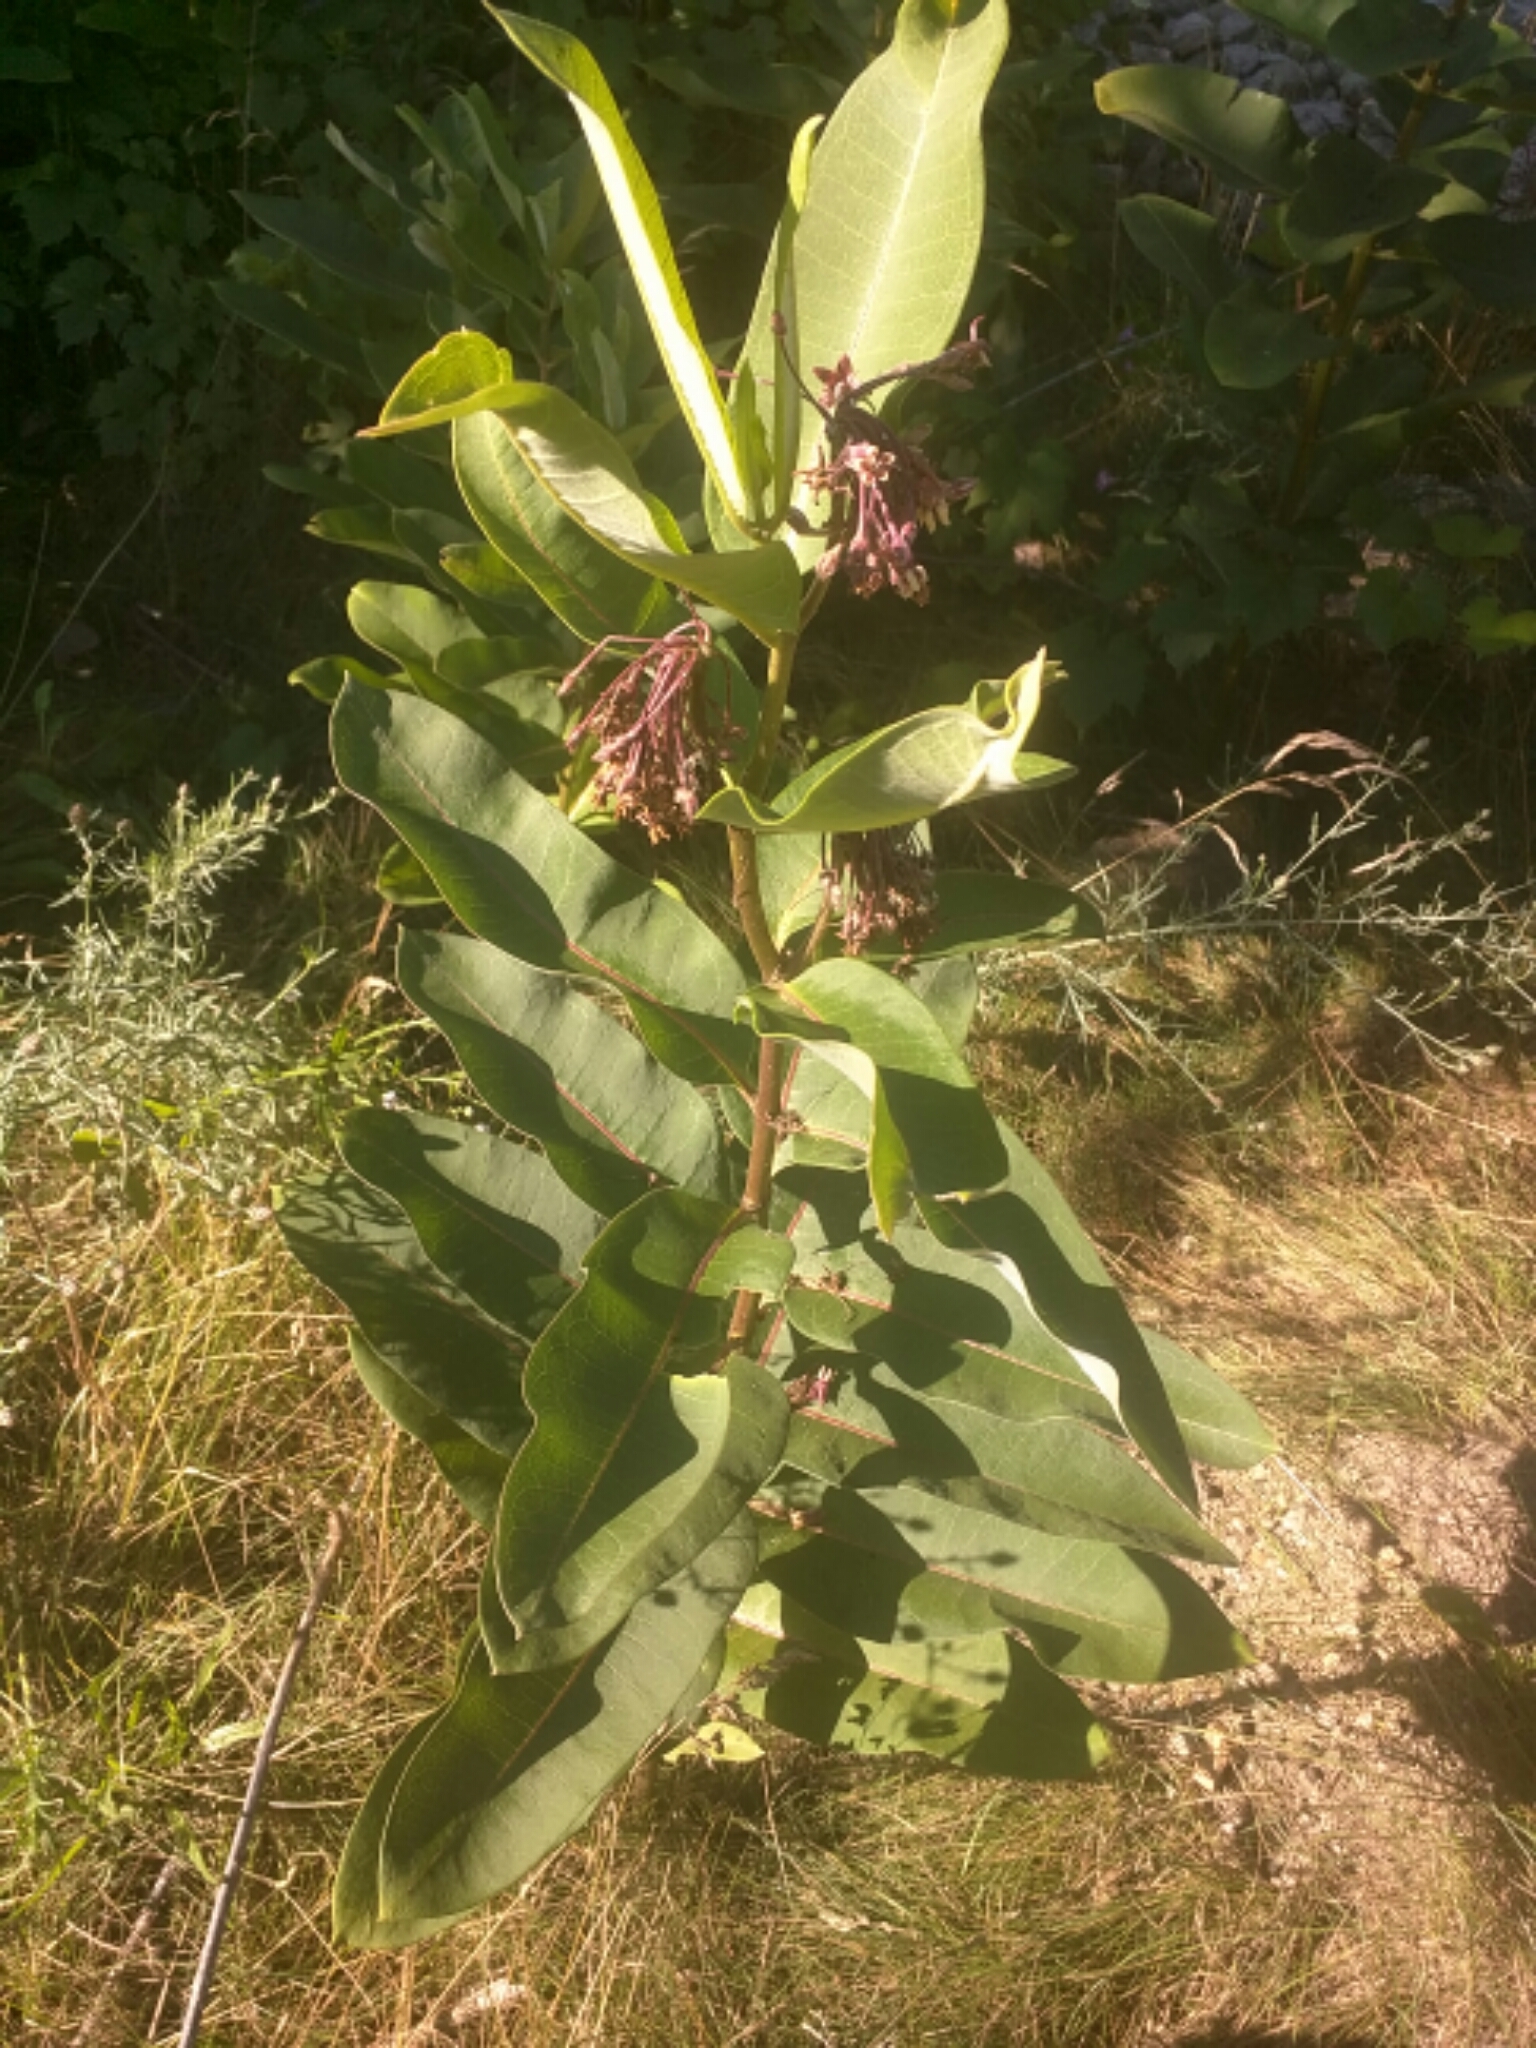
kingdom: Plantae
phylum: Tracheophyta
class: Magnoliopsida
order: Gentianales
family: Apocynaceae
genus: Asclepias
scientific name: Asclepias syriaca
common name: Common milkweed
